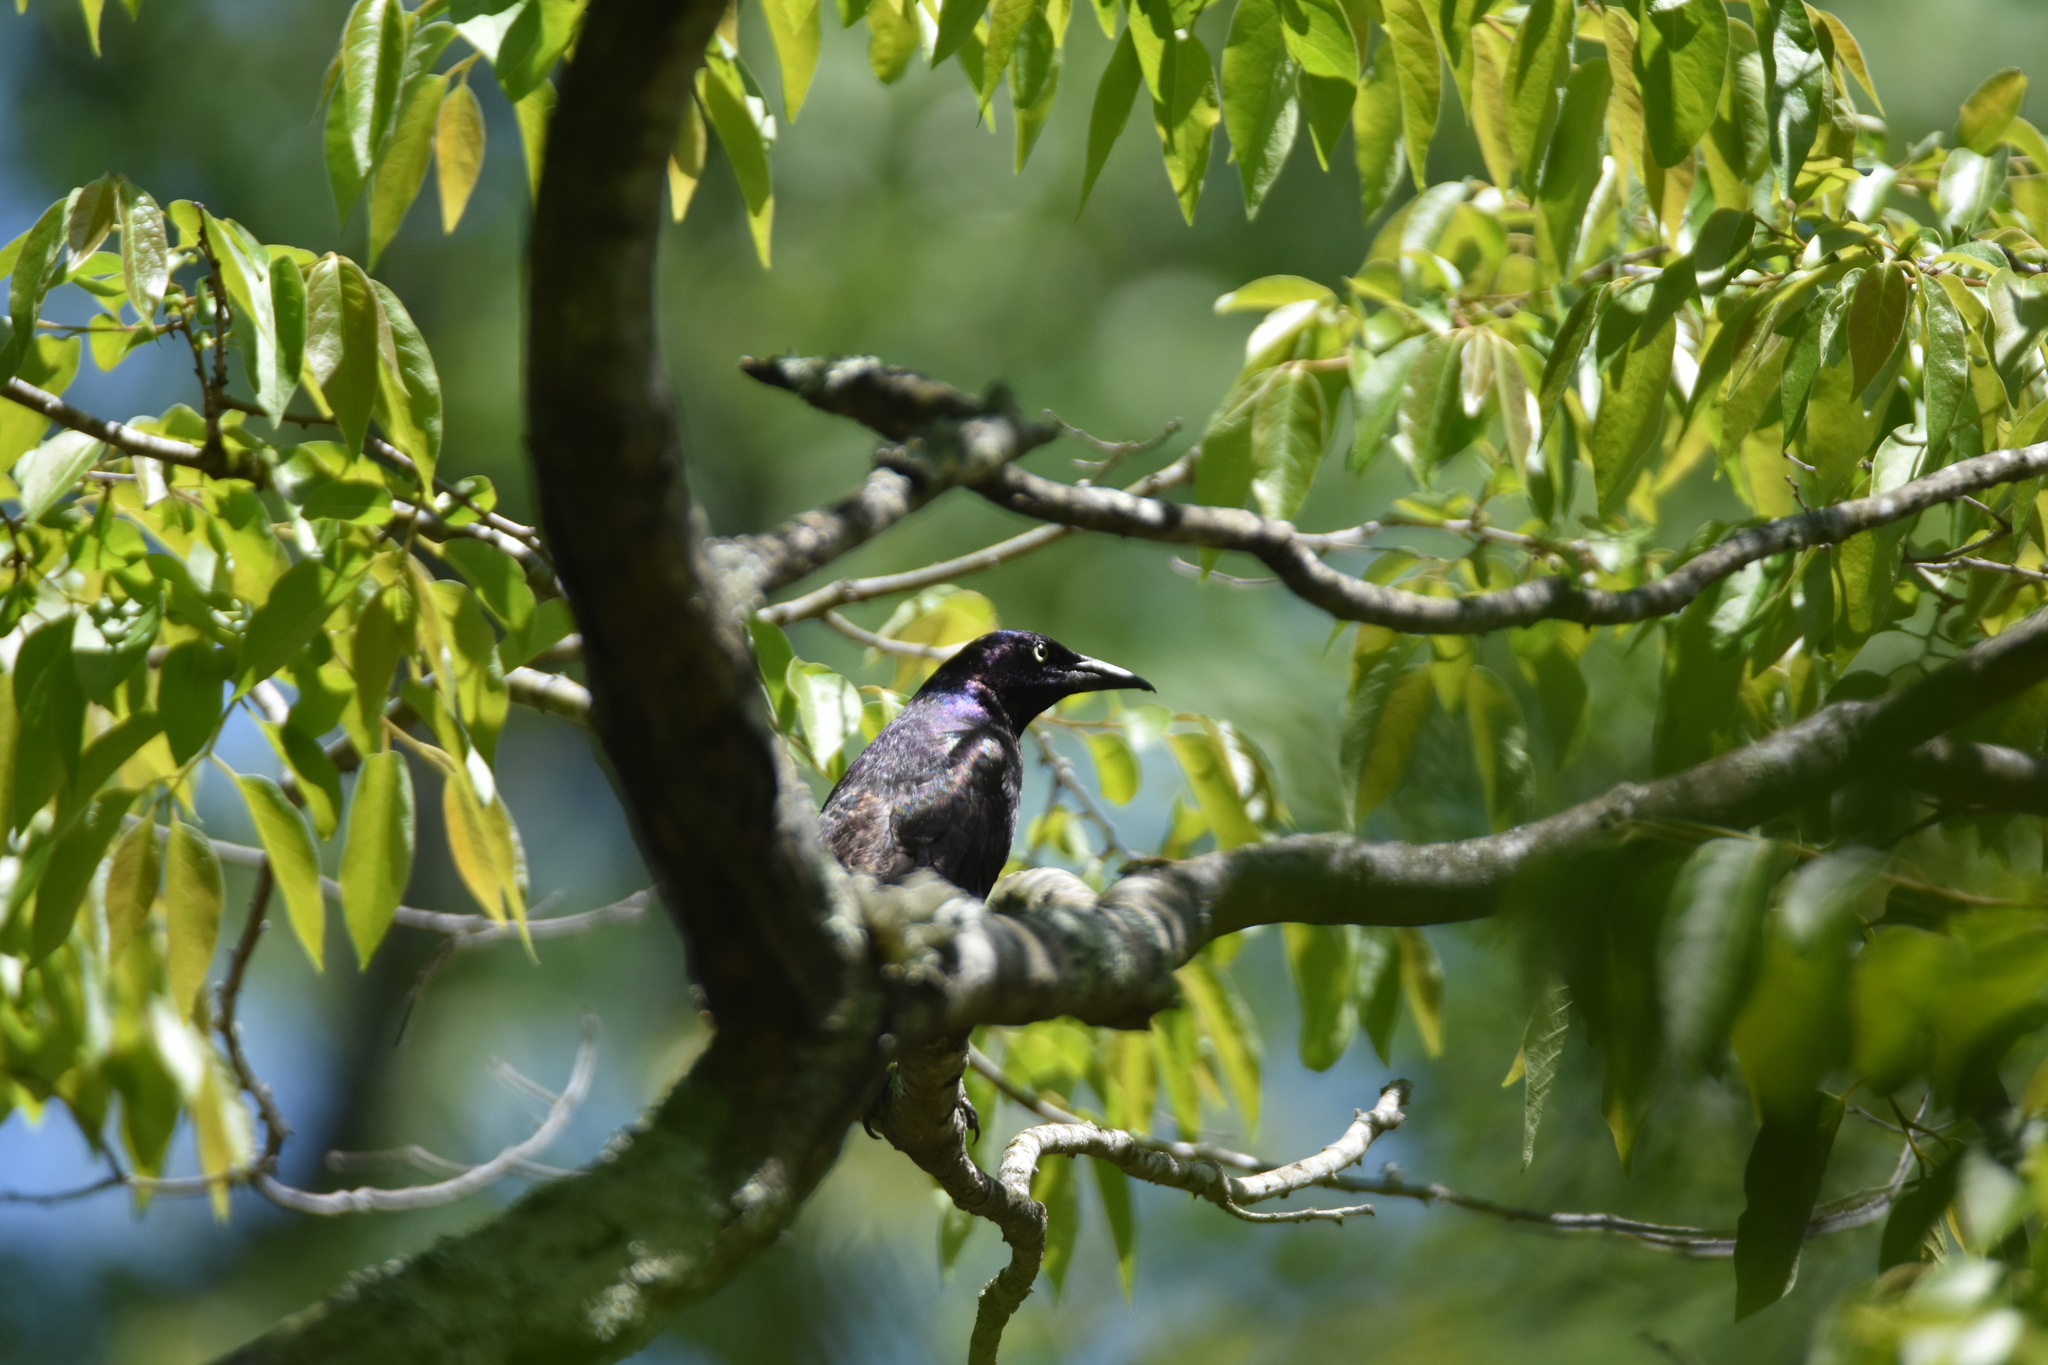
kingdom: Animalia
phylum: Chordata
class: Aves
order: Passeriformes
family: Icteridae
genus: Quiscalus
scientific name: Quiscalus quiscula
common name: Common grackle
